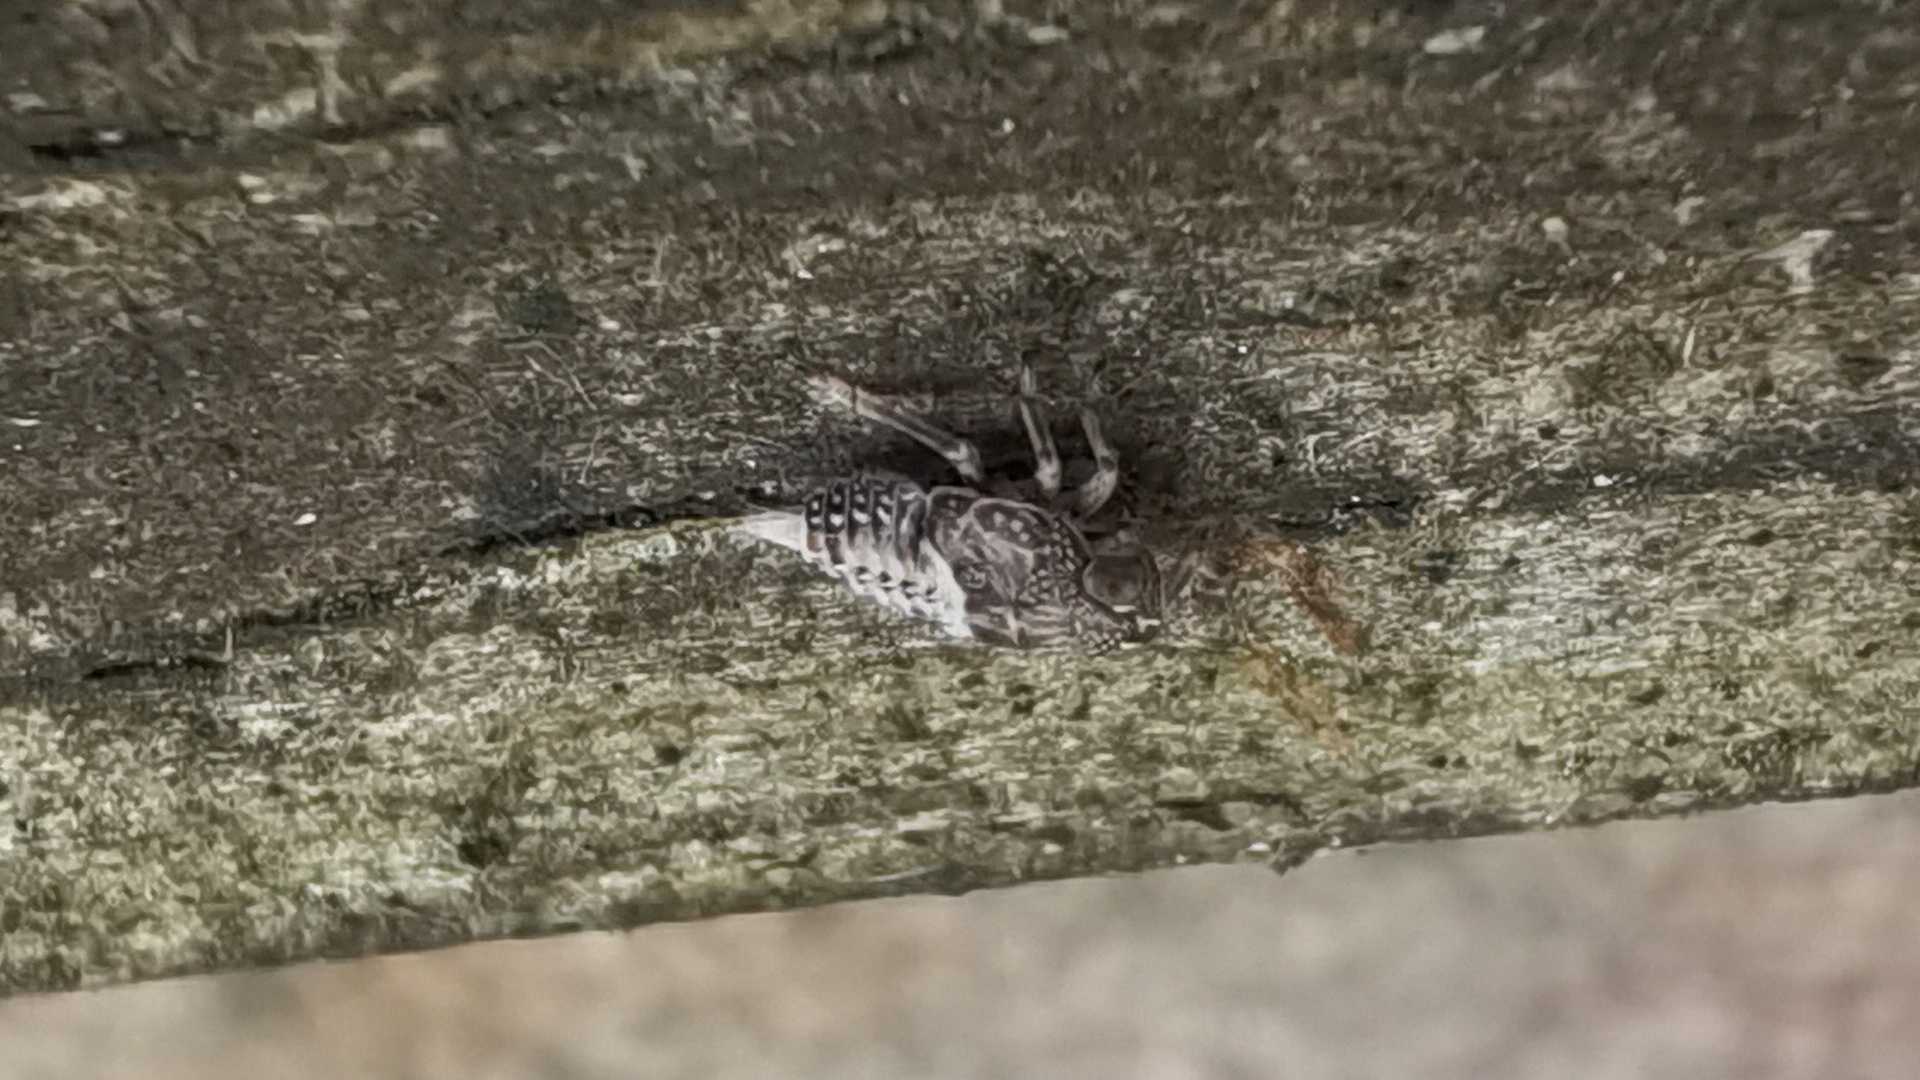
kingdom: Animalia
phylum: Arthropoda
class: Insecta
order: Hemiptera
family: Issidae
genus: Issus
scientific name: Issus
